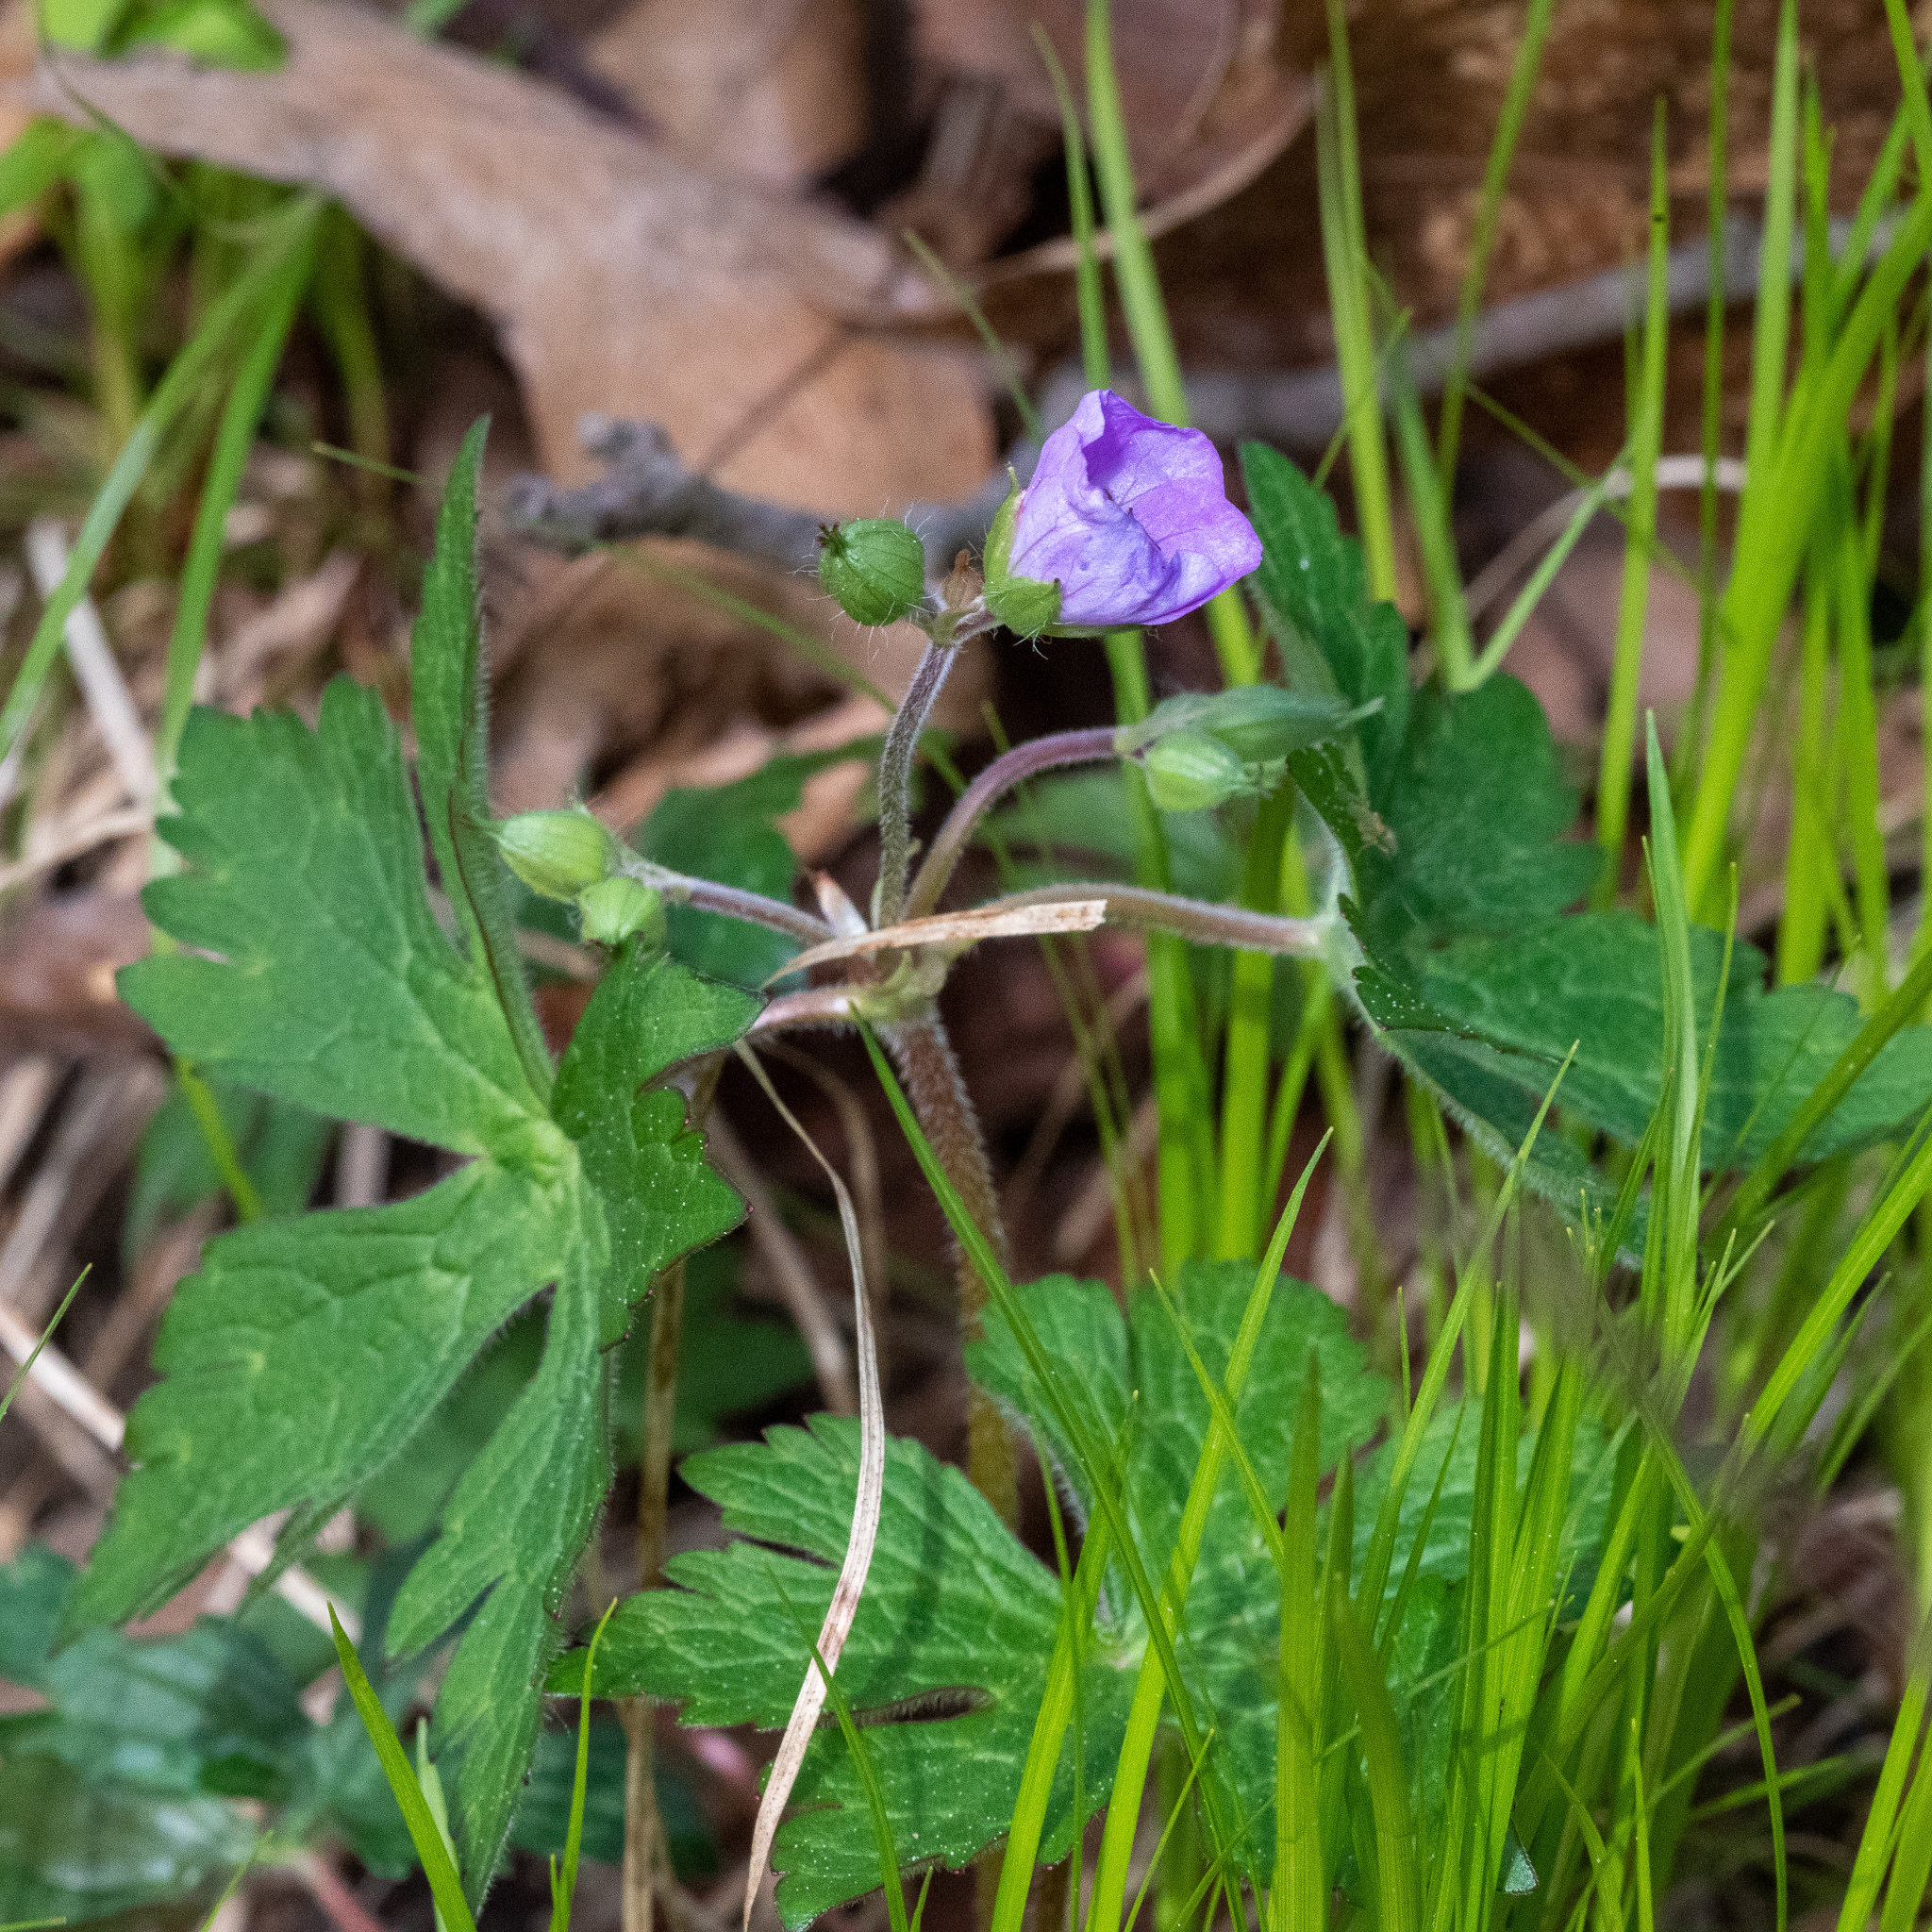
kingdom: Plantae
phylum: Tracheophyta
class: Magnoliopsida
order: Geraniales
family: Geraniaceae
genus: Geranium
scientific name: Geranium maculatum
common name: Spotted geranium
